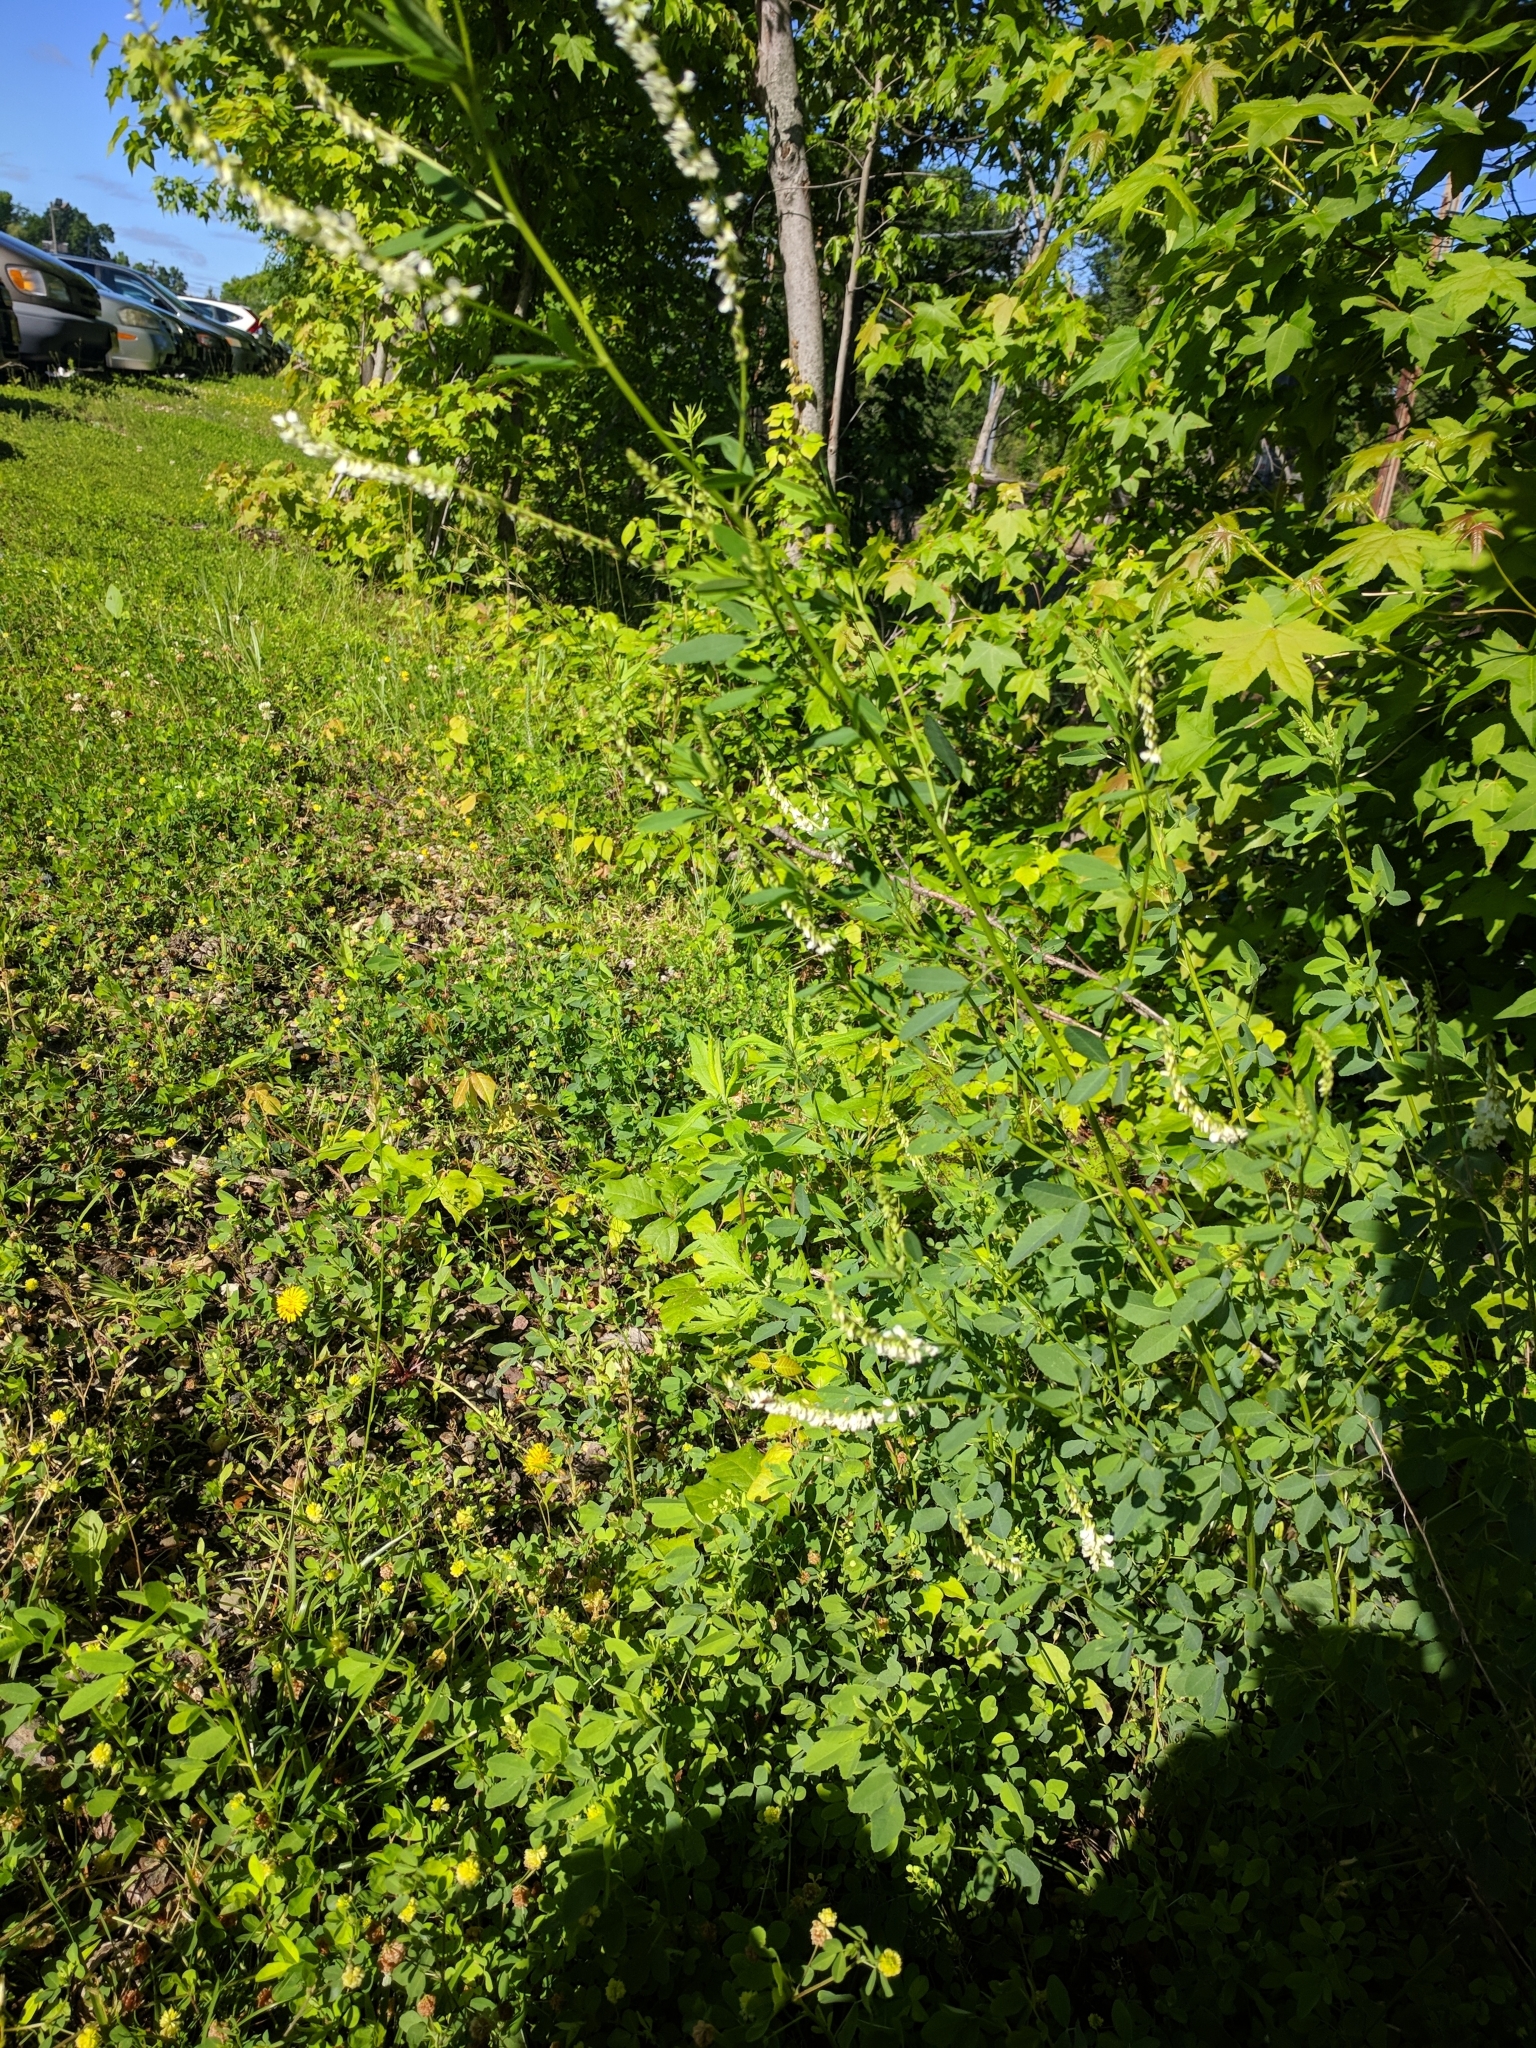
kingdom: Plantae
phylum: Tracheophyta
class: Magnoliopsida
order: Fabales
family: Fabaceae
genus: Melilotus
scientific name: Melilotus albus
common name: White melilot
